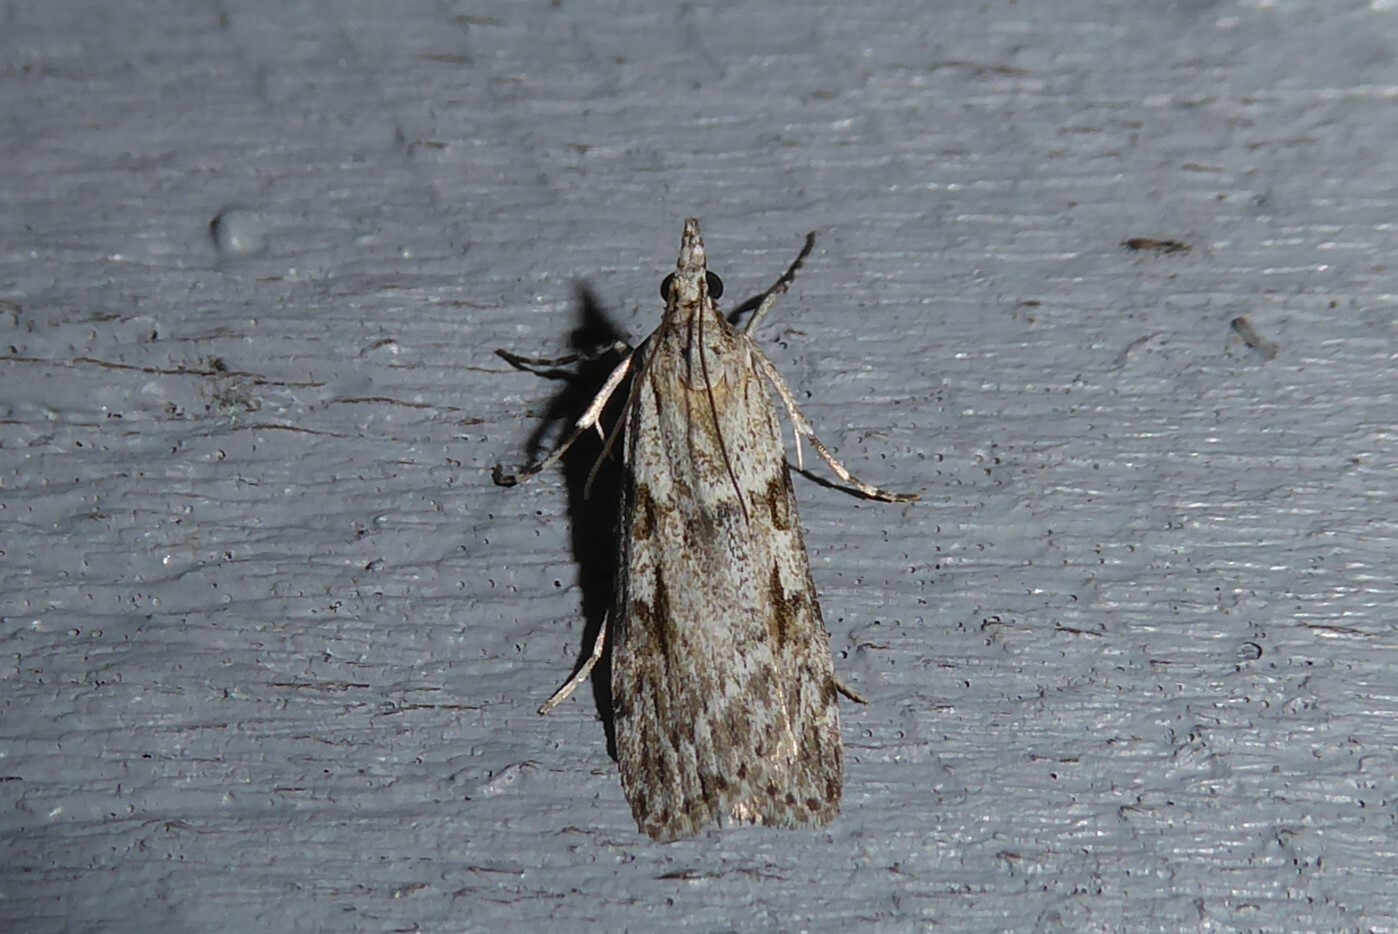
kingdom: Animalia
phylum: Arthropoda
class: Insecta
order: Lepidoptera
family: Crambidae
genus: Scoparia
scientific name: Scoparia halopis
